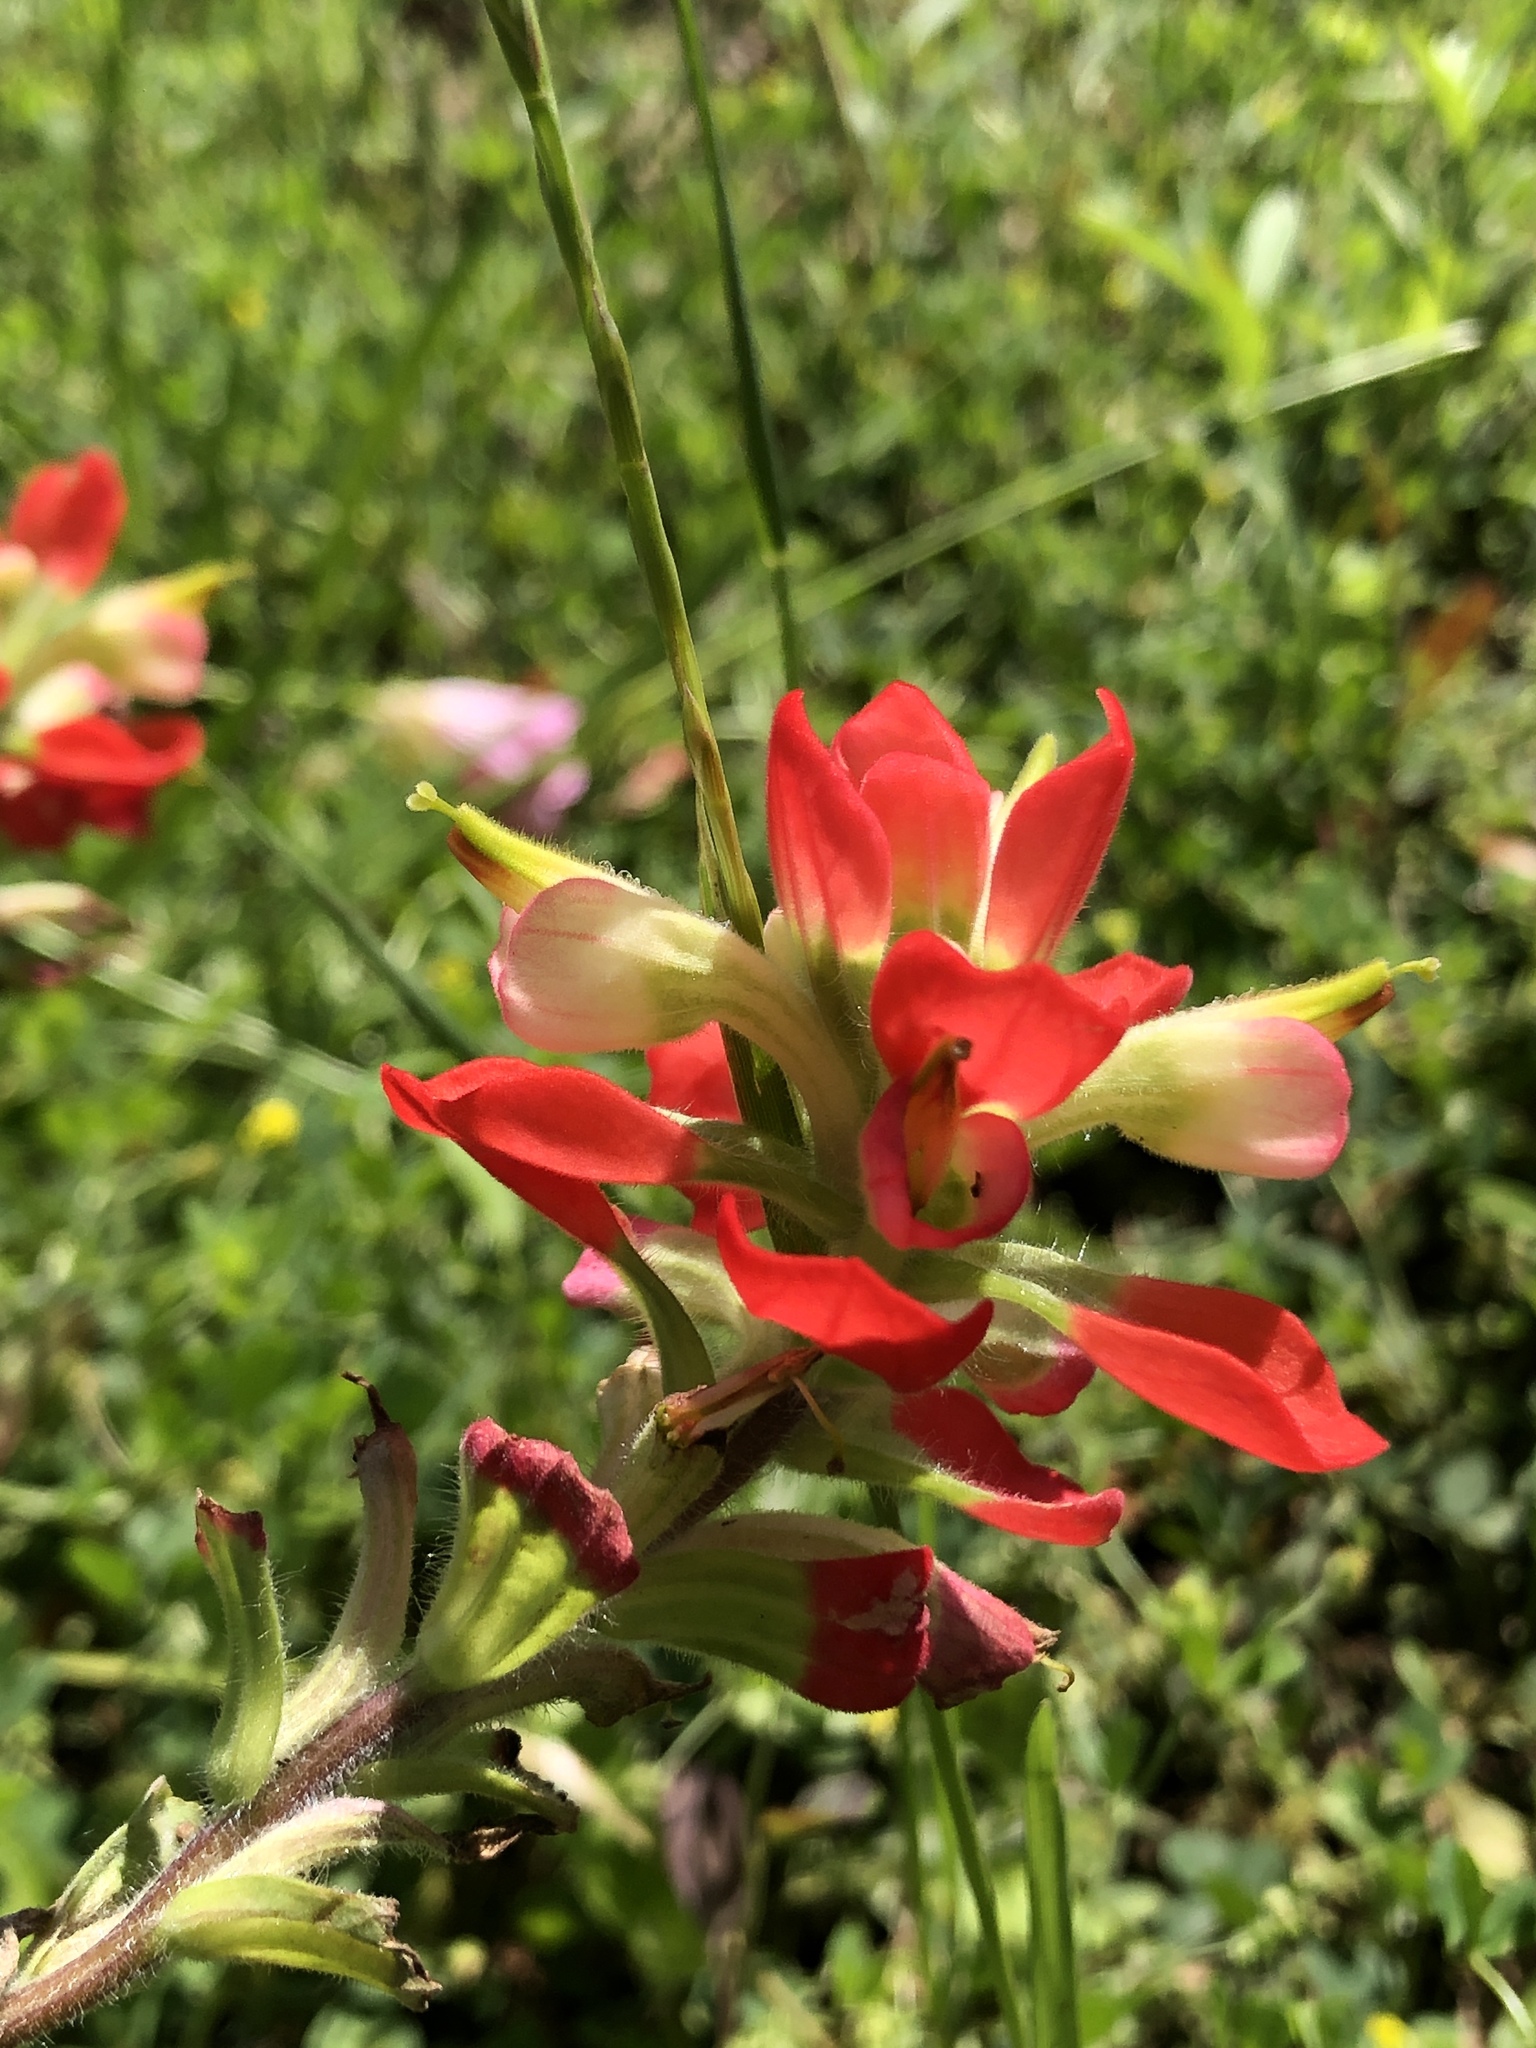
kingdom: Plantae
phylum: Tracheophyta
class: Magnoliopsida
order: Lamiales
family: Orobanchaceae
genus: Castilleja
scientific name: Castilleja indivisa
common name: Texas paintbrush
